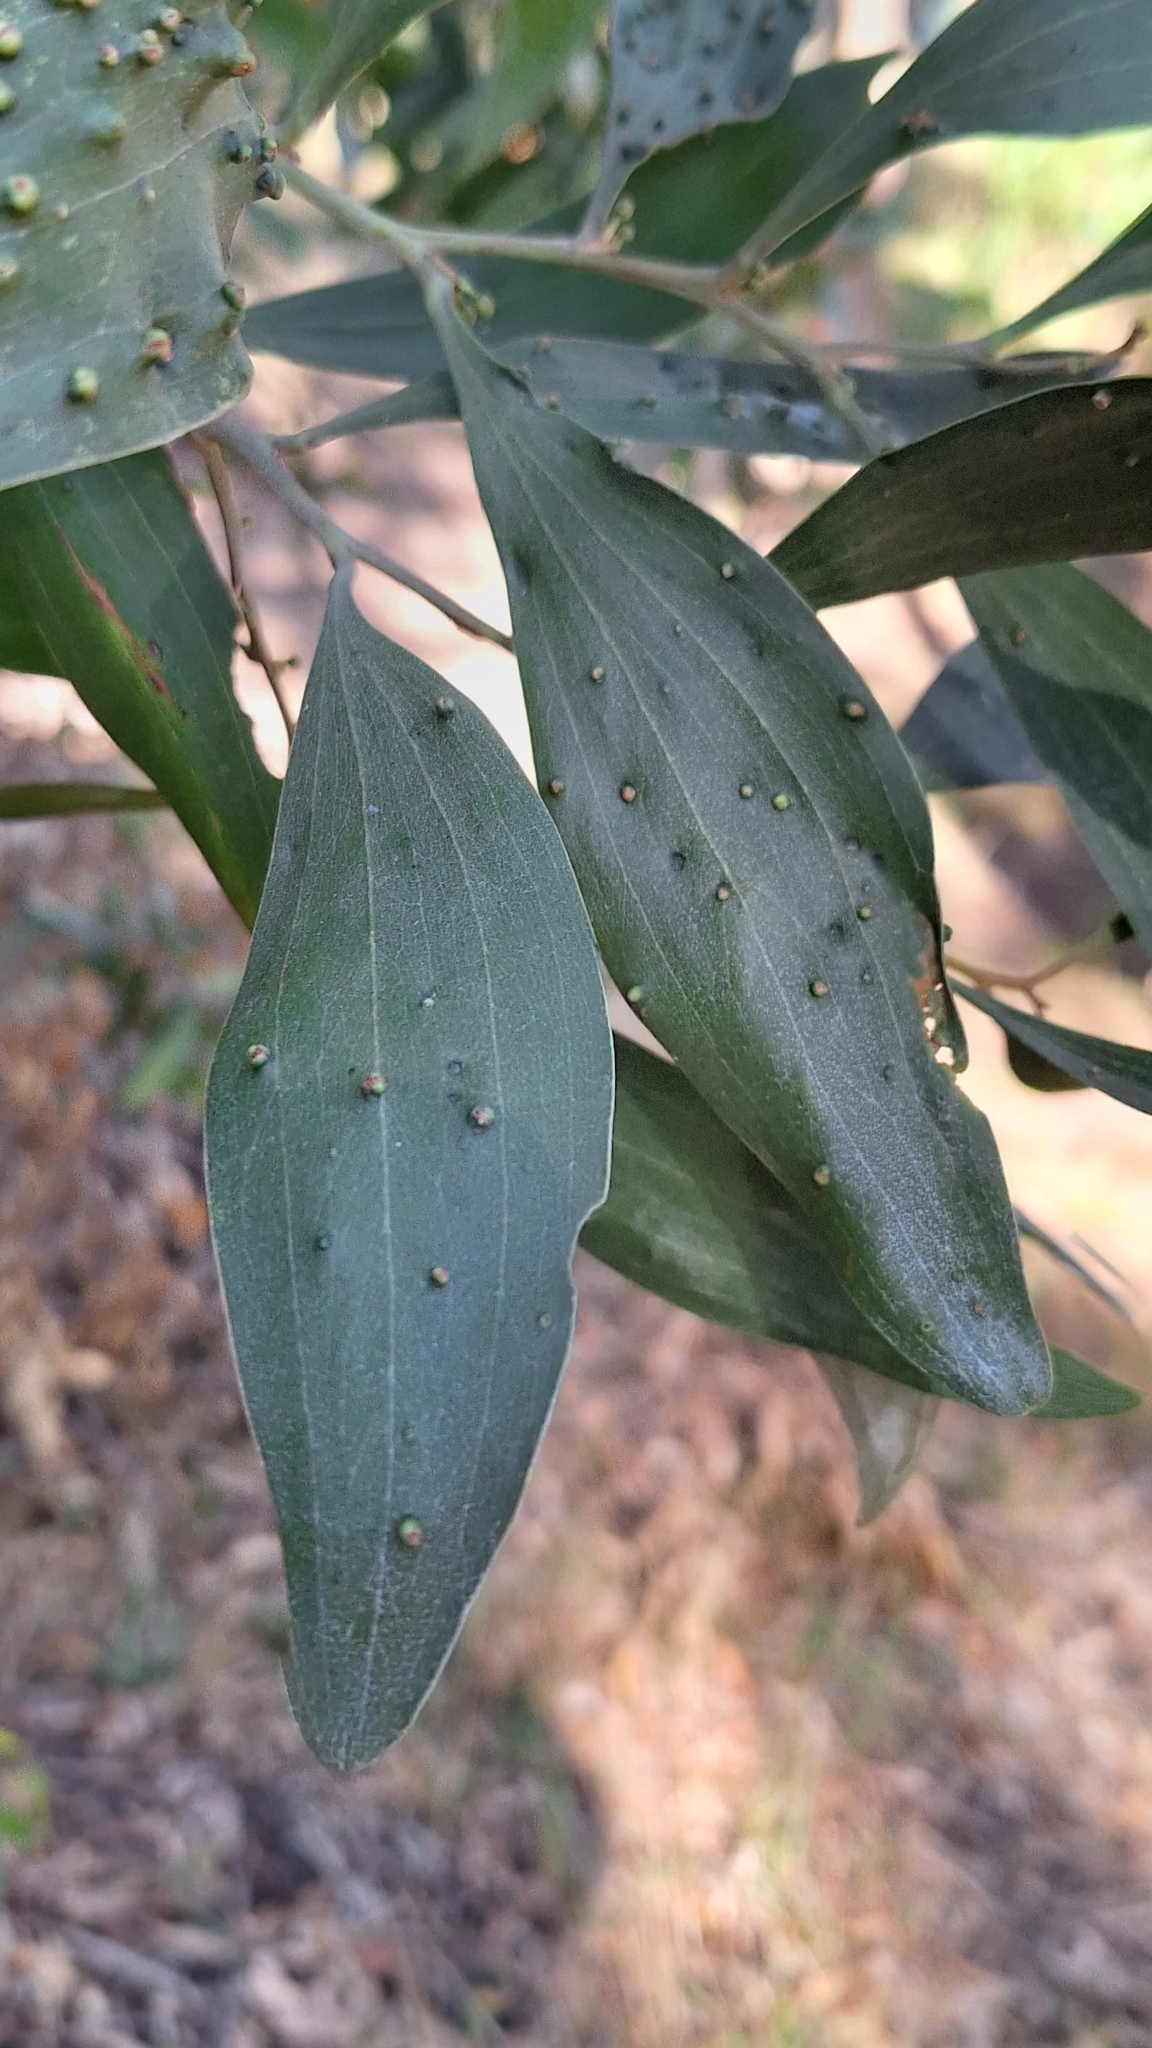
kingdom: Plantae
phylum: Tracheophyta
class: Magnoliopsida
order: Fabales
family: Fabaceae
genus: Acacia
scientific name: Acacia melanoxylon
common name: Blackwood
